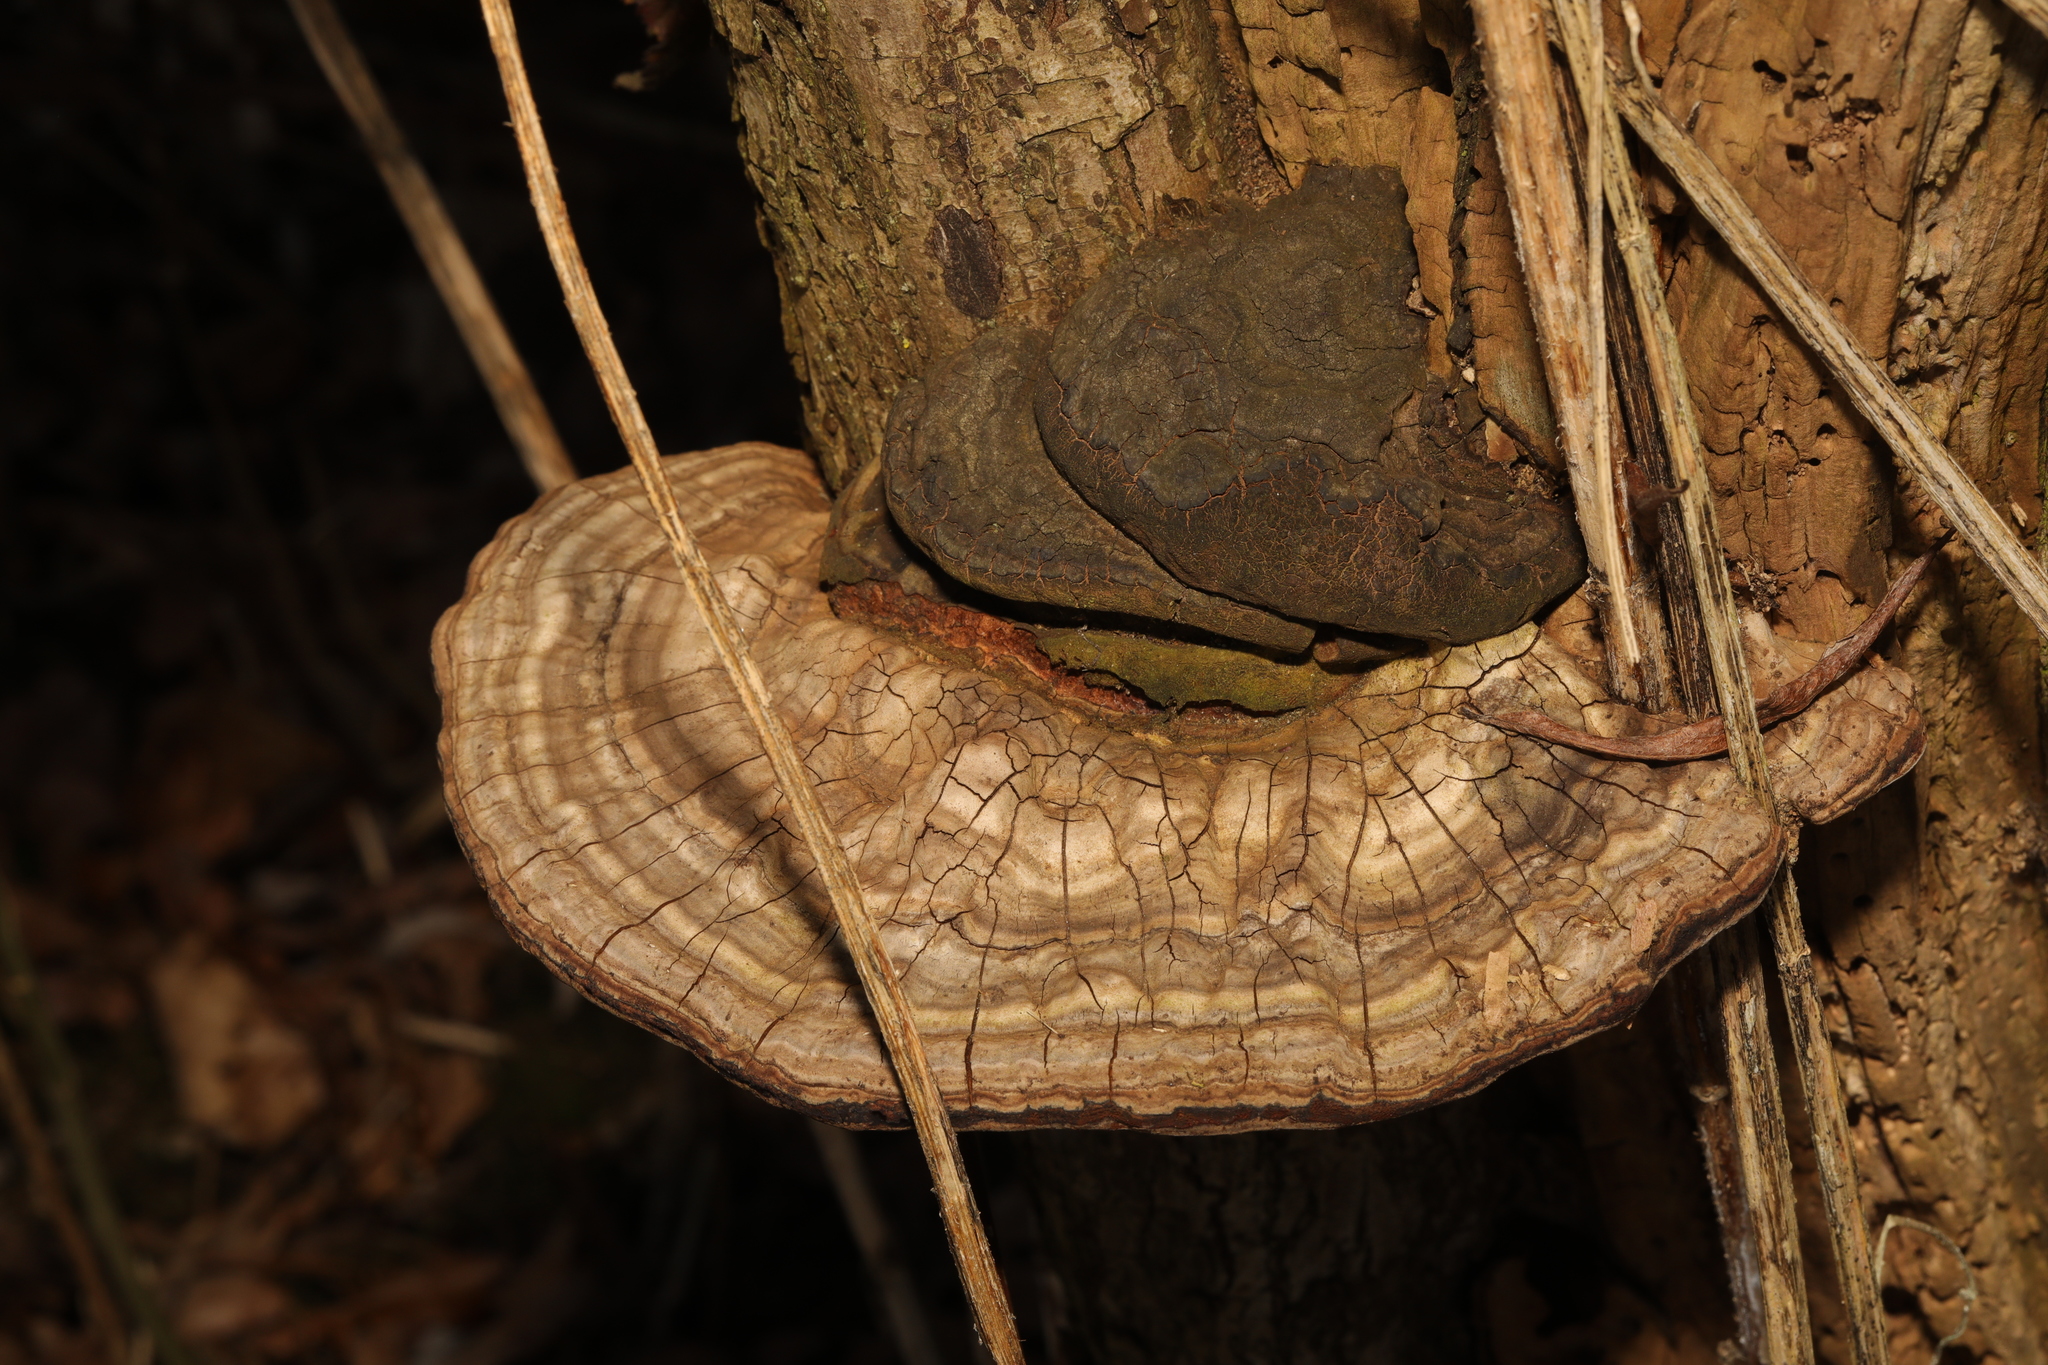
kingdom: Fungi
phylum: Basidiomycota
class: Agaricomycetes
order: Polyporales
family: Polyporaceae
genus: Fomes
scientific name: Fomes fomentarius
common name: Hoof fungus
